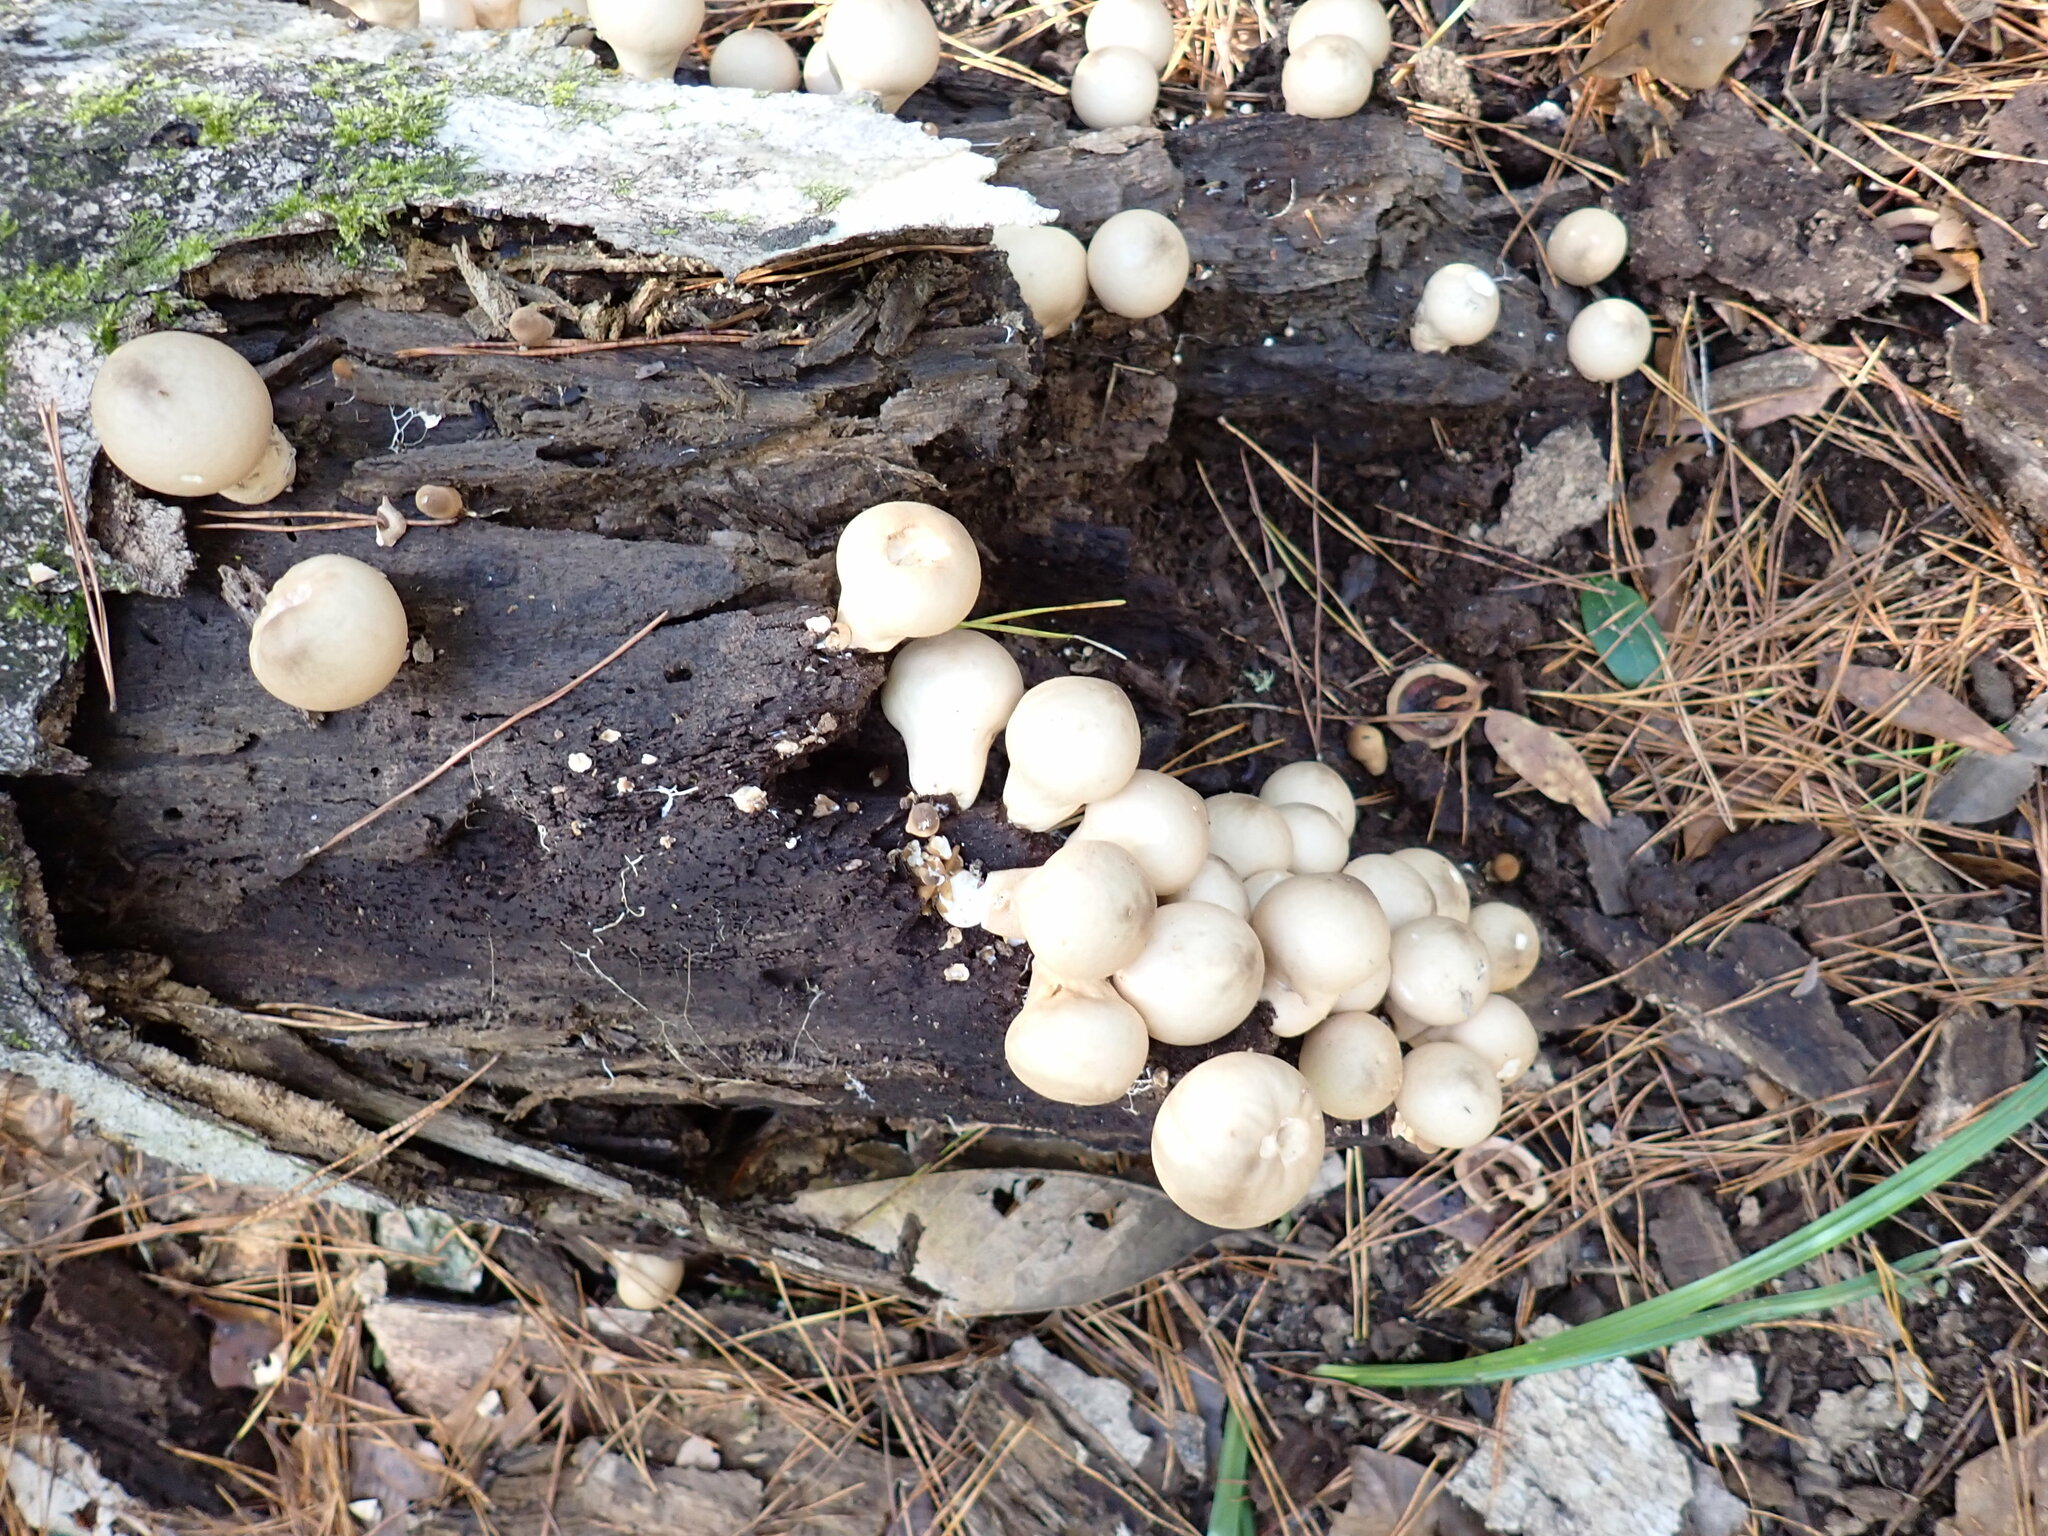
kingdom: Fungi
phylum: Basidiomycota
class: Agaricomycetes
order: Agaricales
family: Lycoperdaceae
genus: Apioperdon
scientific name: Apioperdon pyriforme
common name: Pear-shaped puffball
